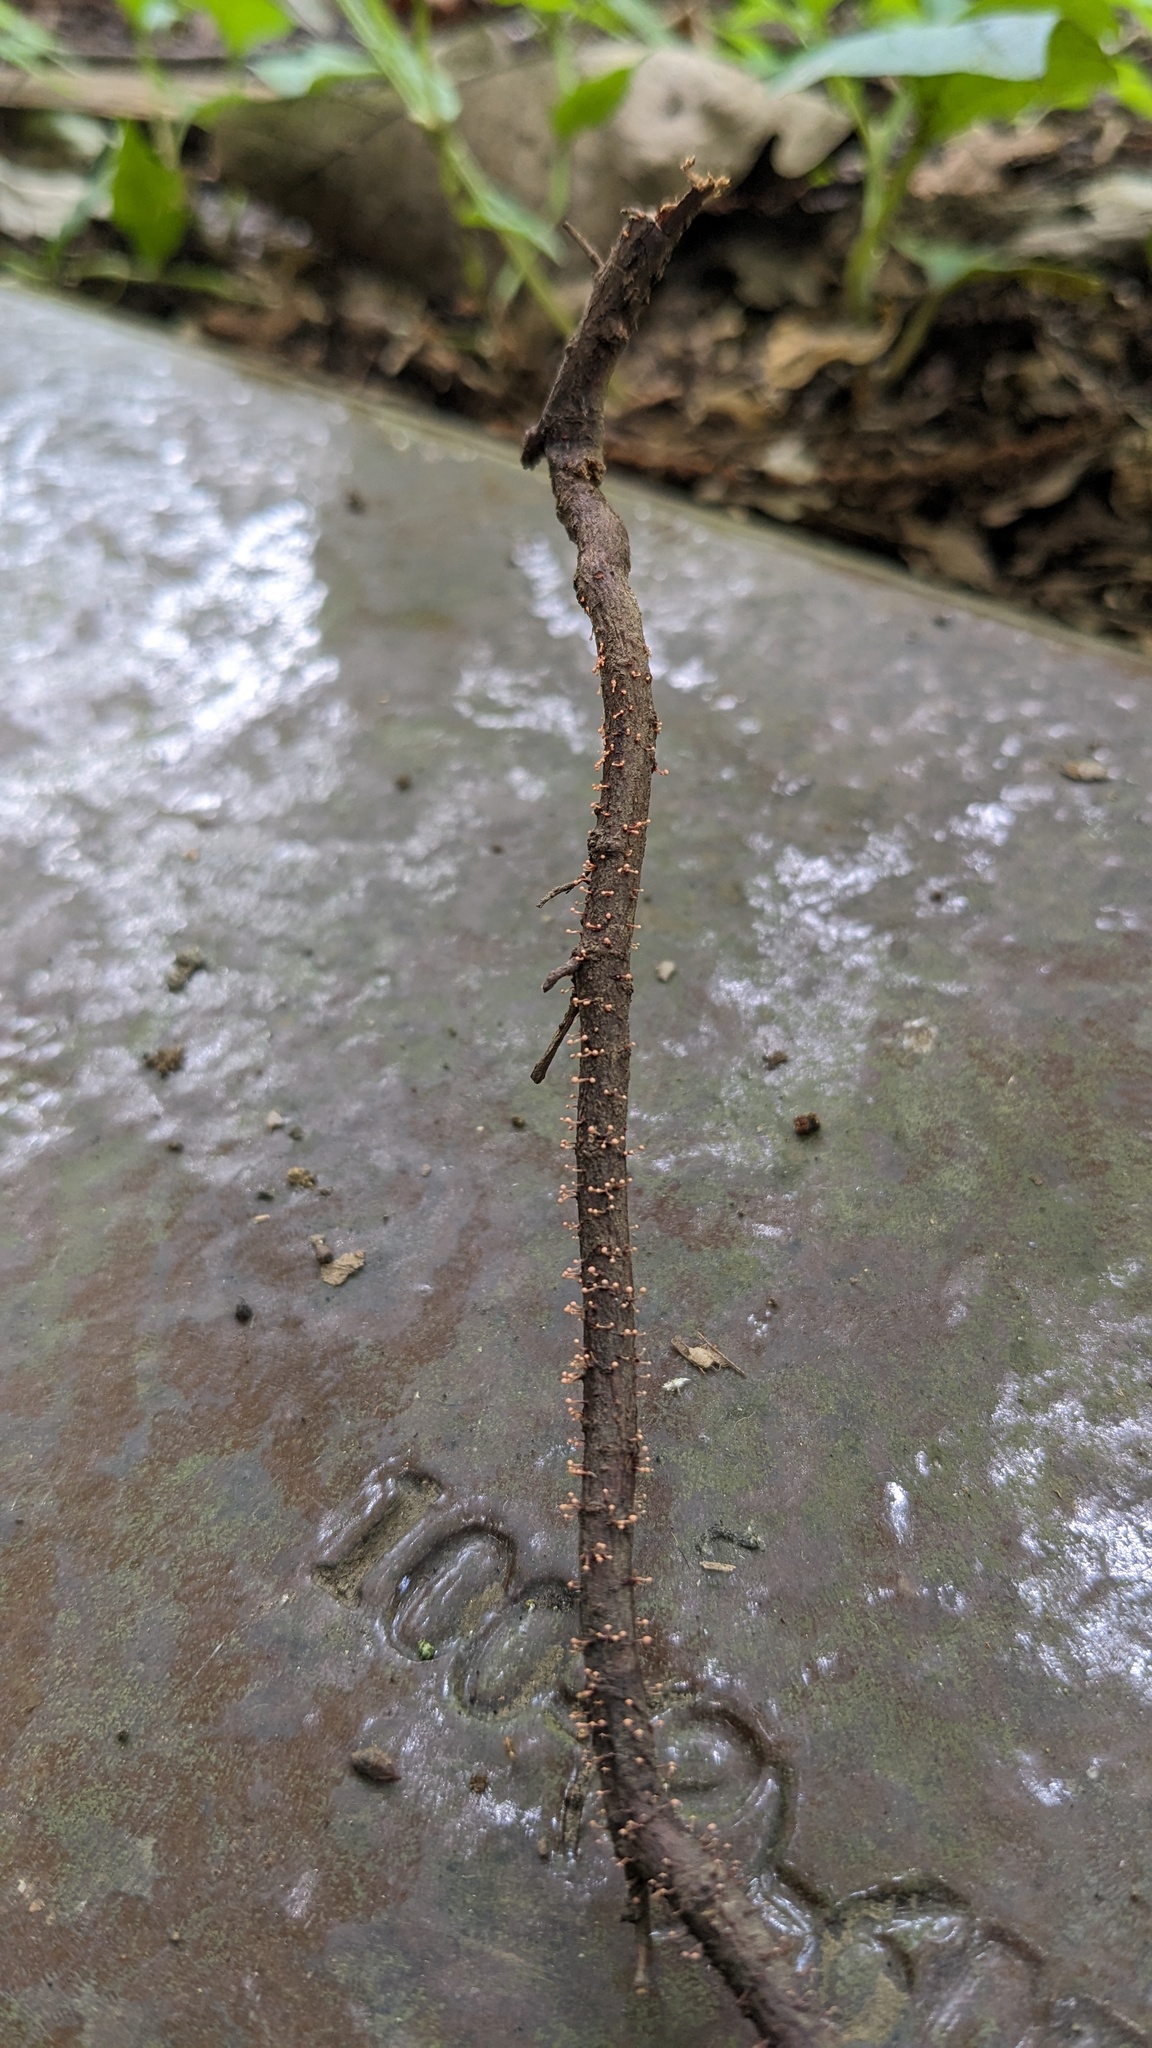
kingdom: Fungi
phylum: Ascomycota
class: Sordariomycetes
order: Hypocreales
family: Nectriaceae
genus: Nectria
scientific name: Nectria pseudotrichia
